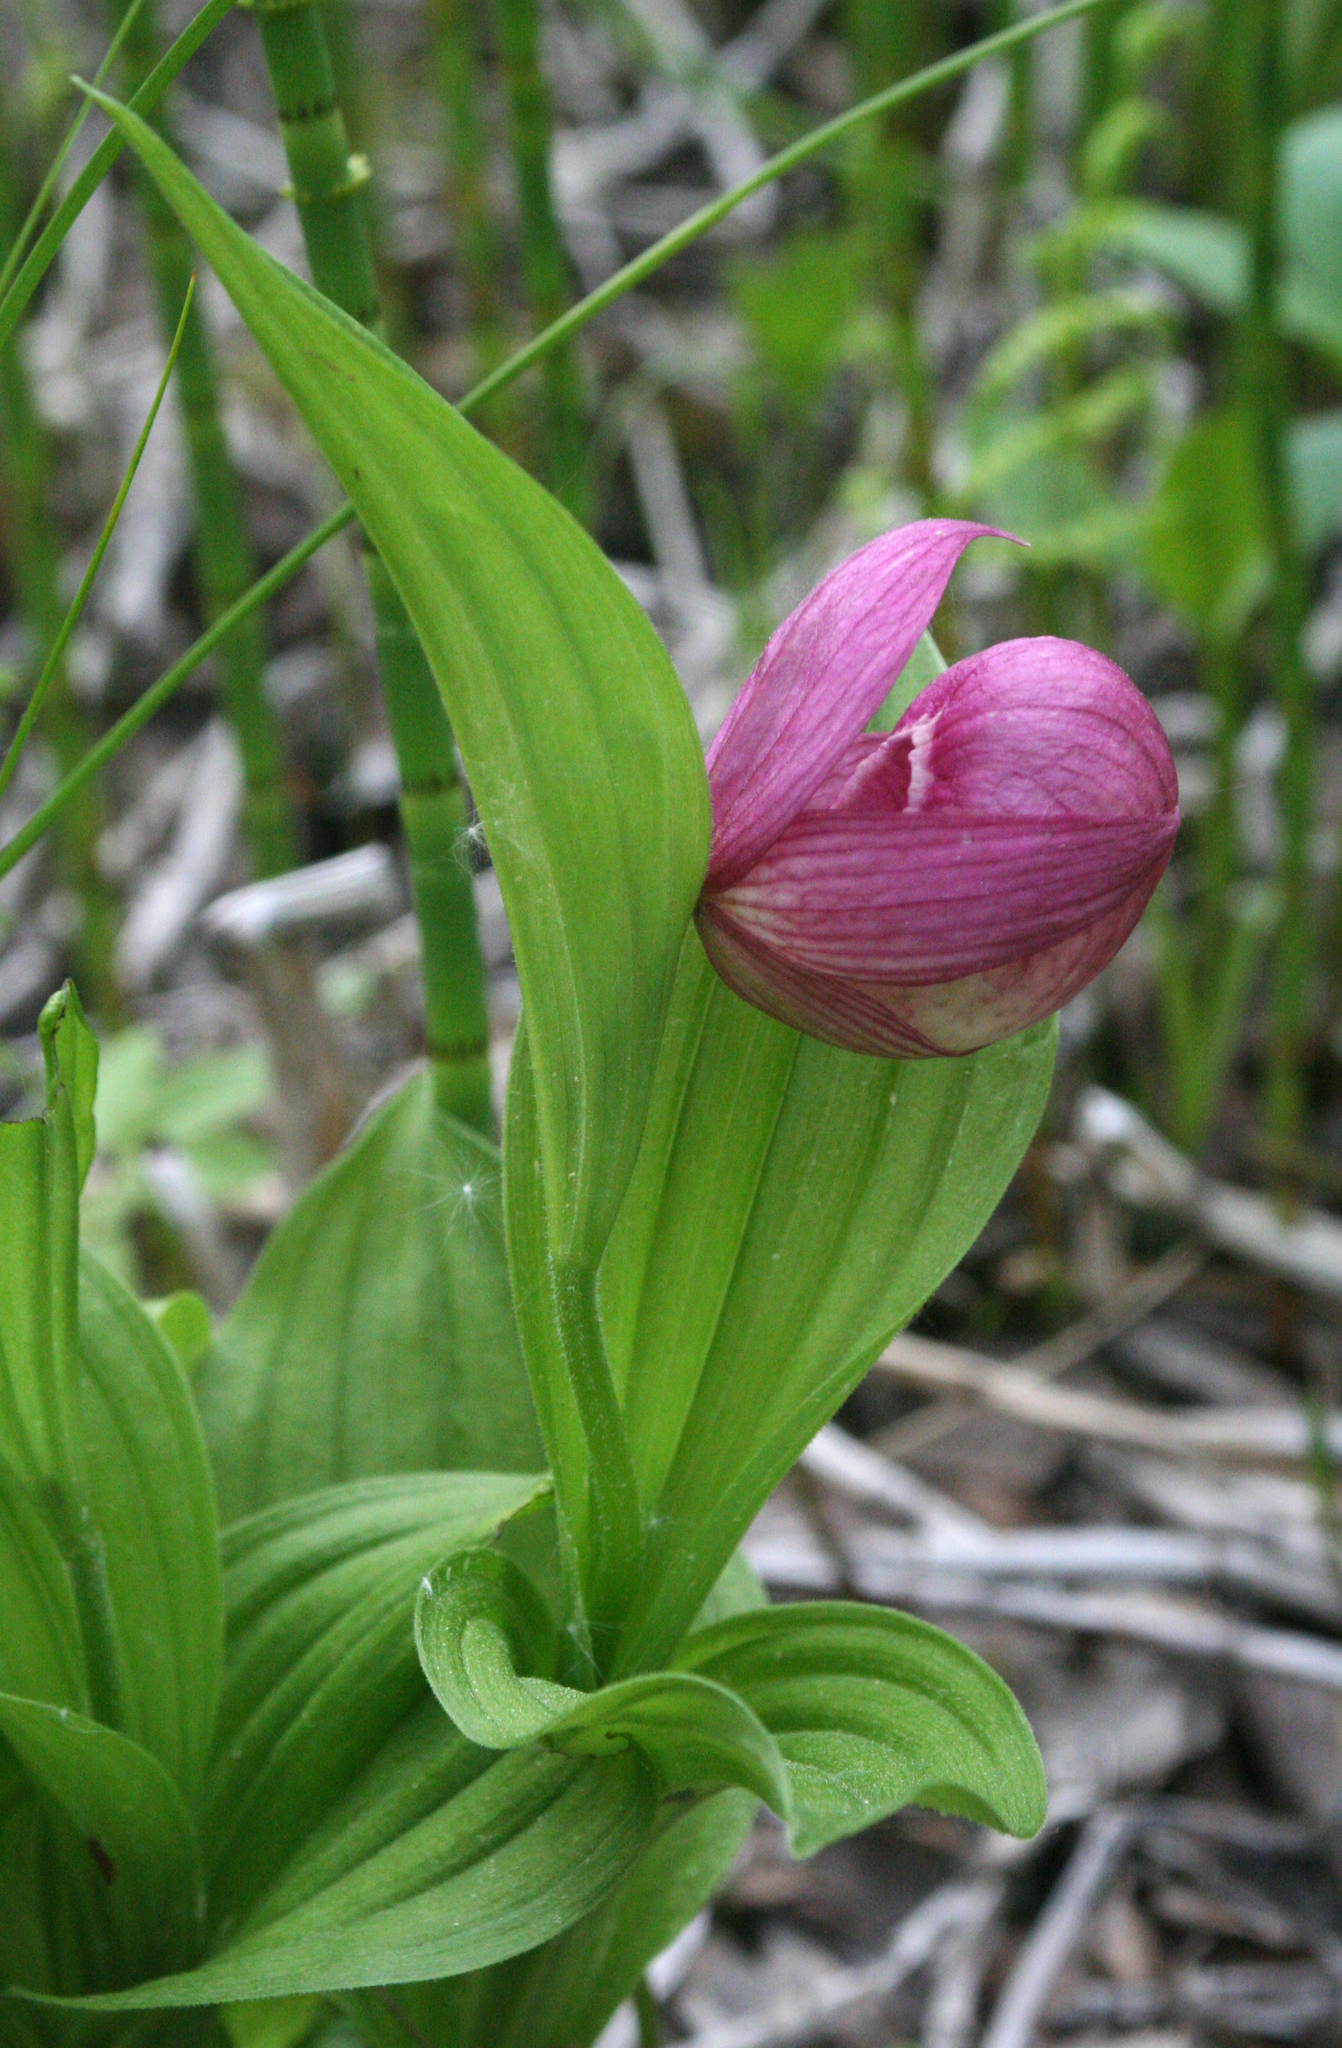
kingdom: Plantae
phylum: Tracheophyta
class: Liliopsida
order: Asparagales
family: Orchidaceae
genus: Cypripedium
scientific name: Cypripedium macranthos
